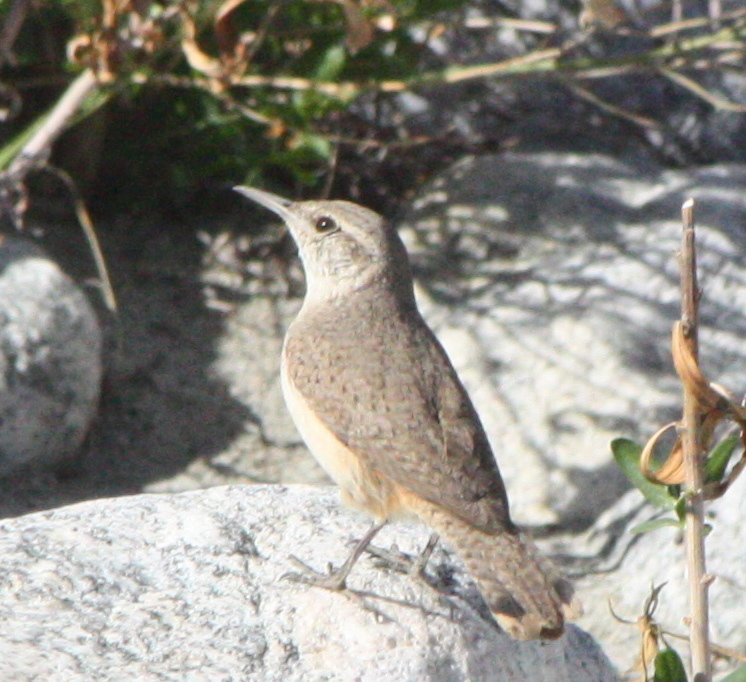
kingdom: Animalia
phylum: Chordata
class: Aves
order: Passeriformes
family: Troglodytidae
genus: Salpinctes
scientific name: Salpinctes obsoletus
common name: Rock wren
